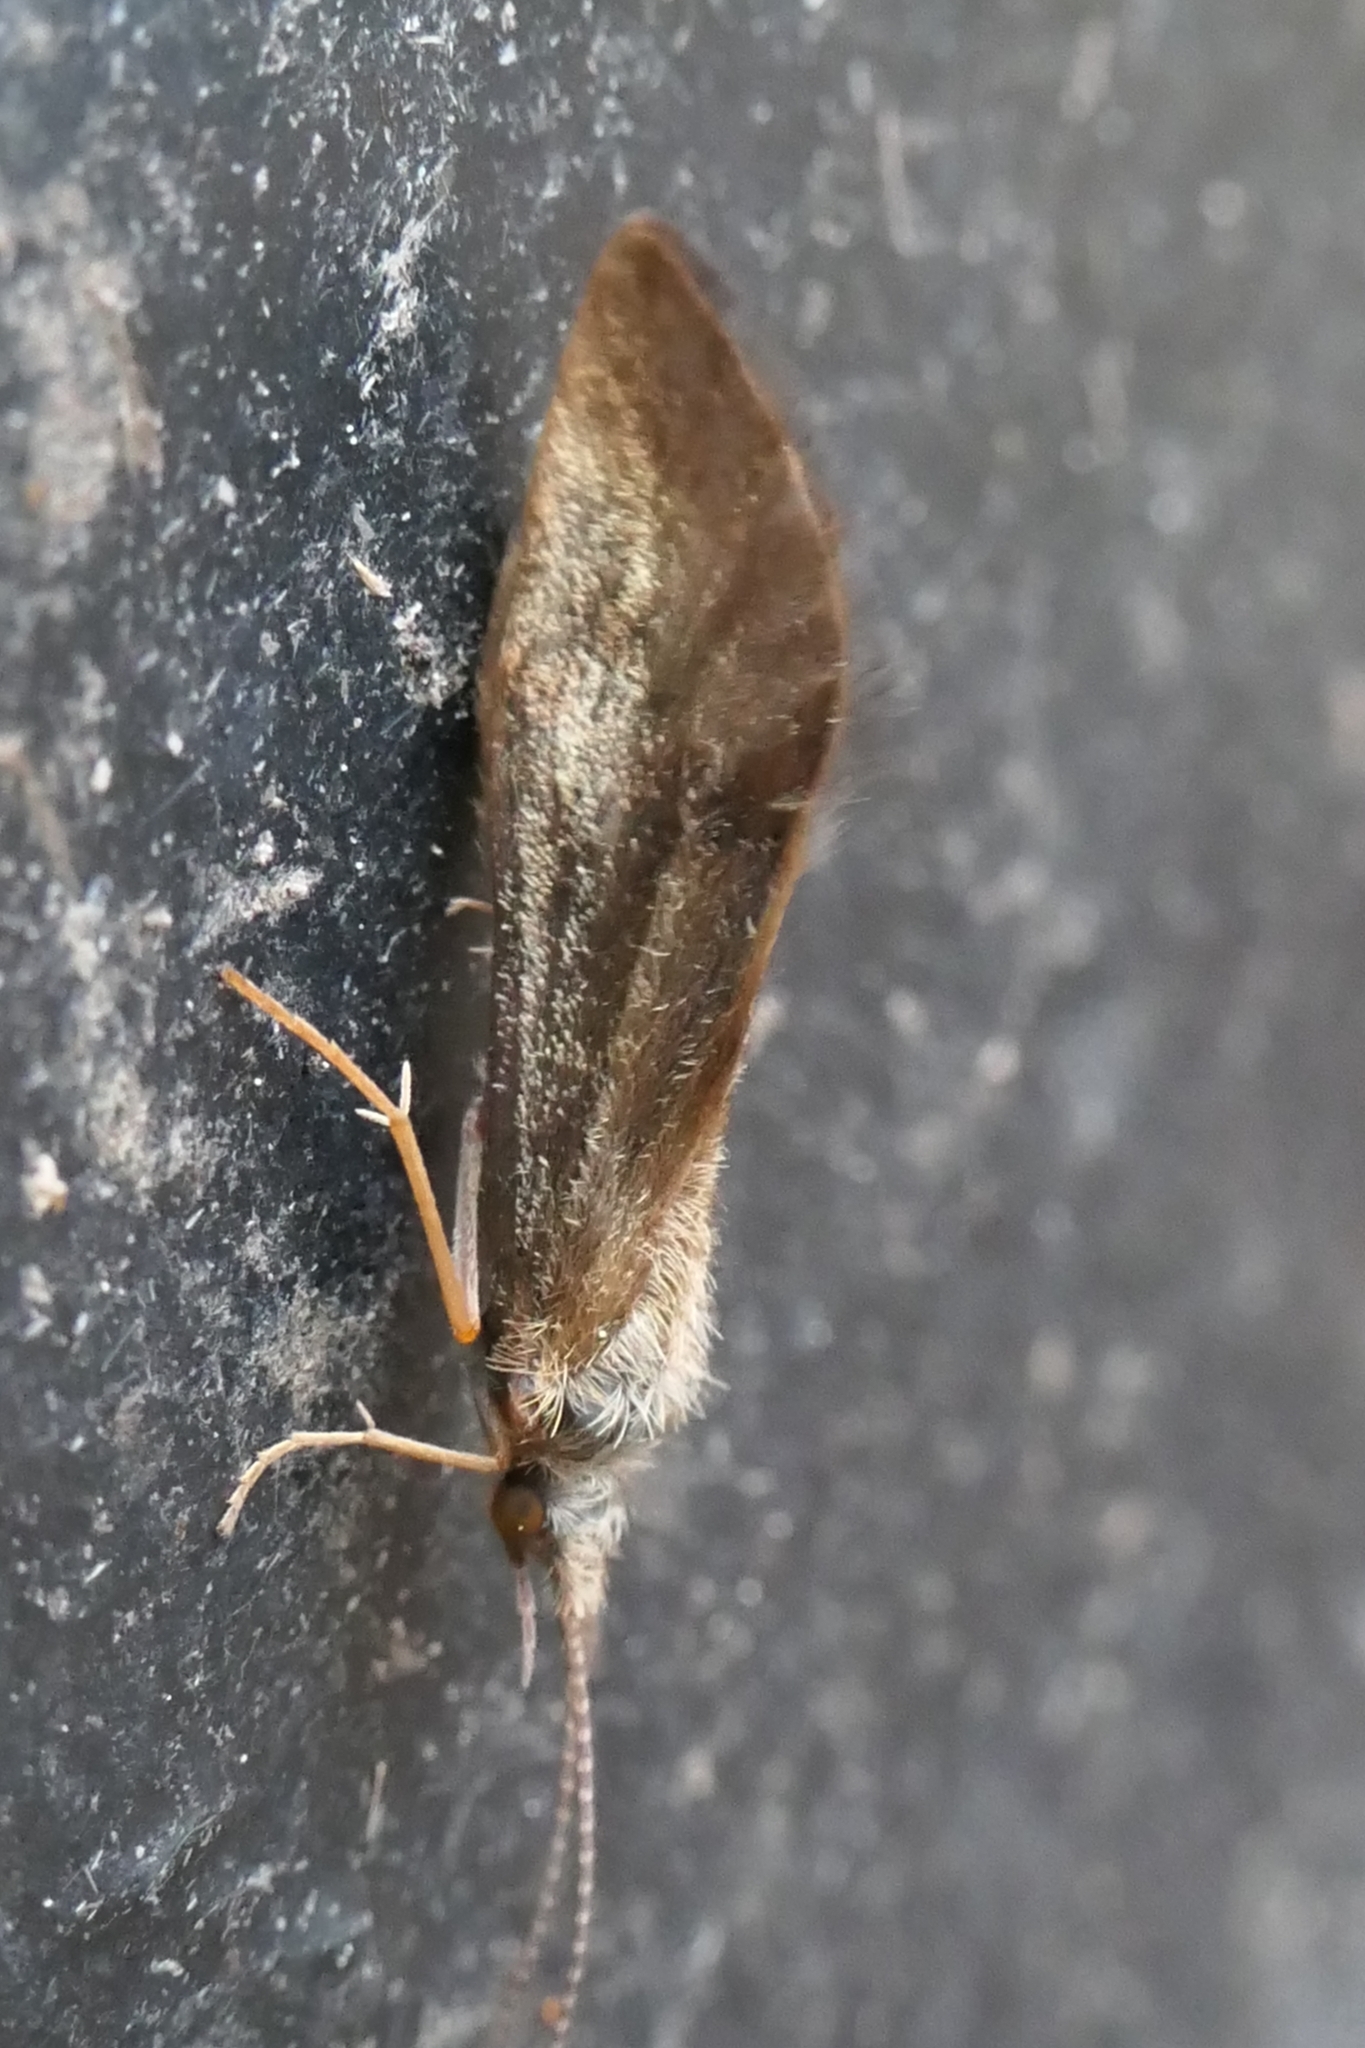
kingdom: Animalia
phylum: Arthropoda
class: Insecta
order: Trichoptera
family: Conoesucidae
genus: Pycnocentrodes
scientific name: Pycnocentrodes aeris
